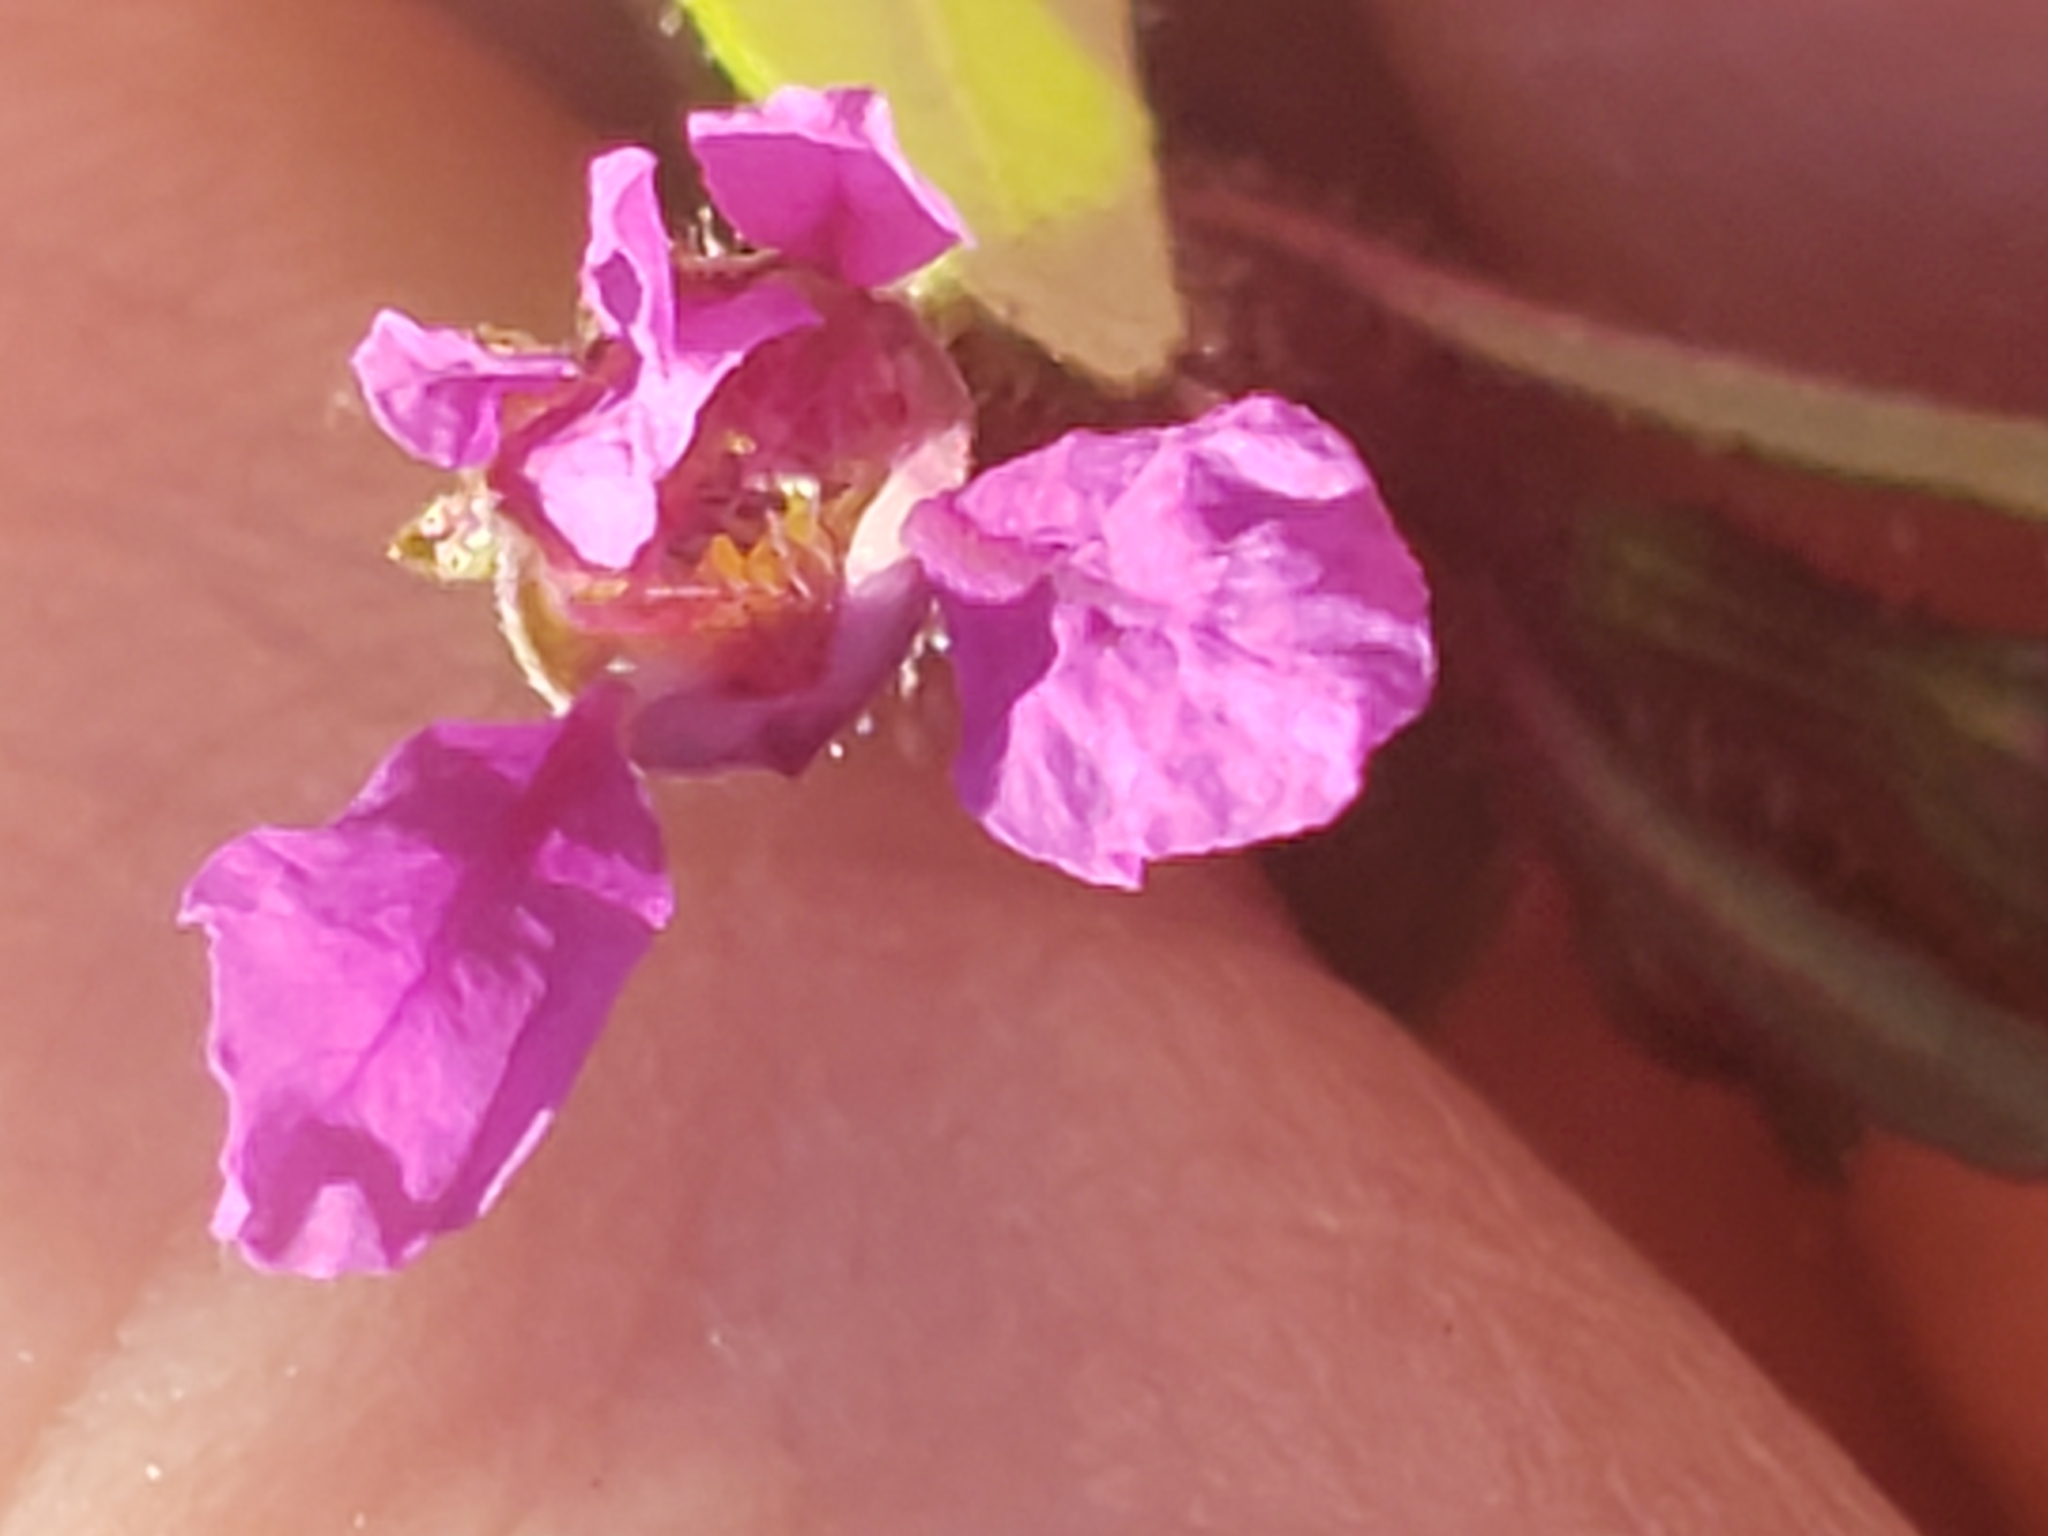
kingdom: Plantae
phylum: Tracheophyta
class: Magnoliopsida
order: Myrtales
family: Lythraceae
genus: Cuphea
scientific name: Cuphea viscosissima
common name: Clammy cuphea
